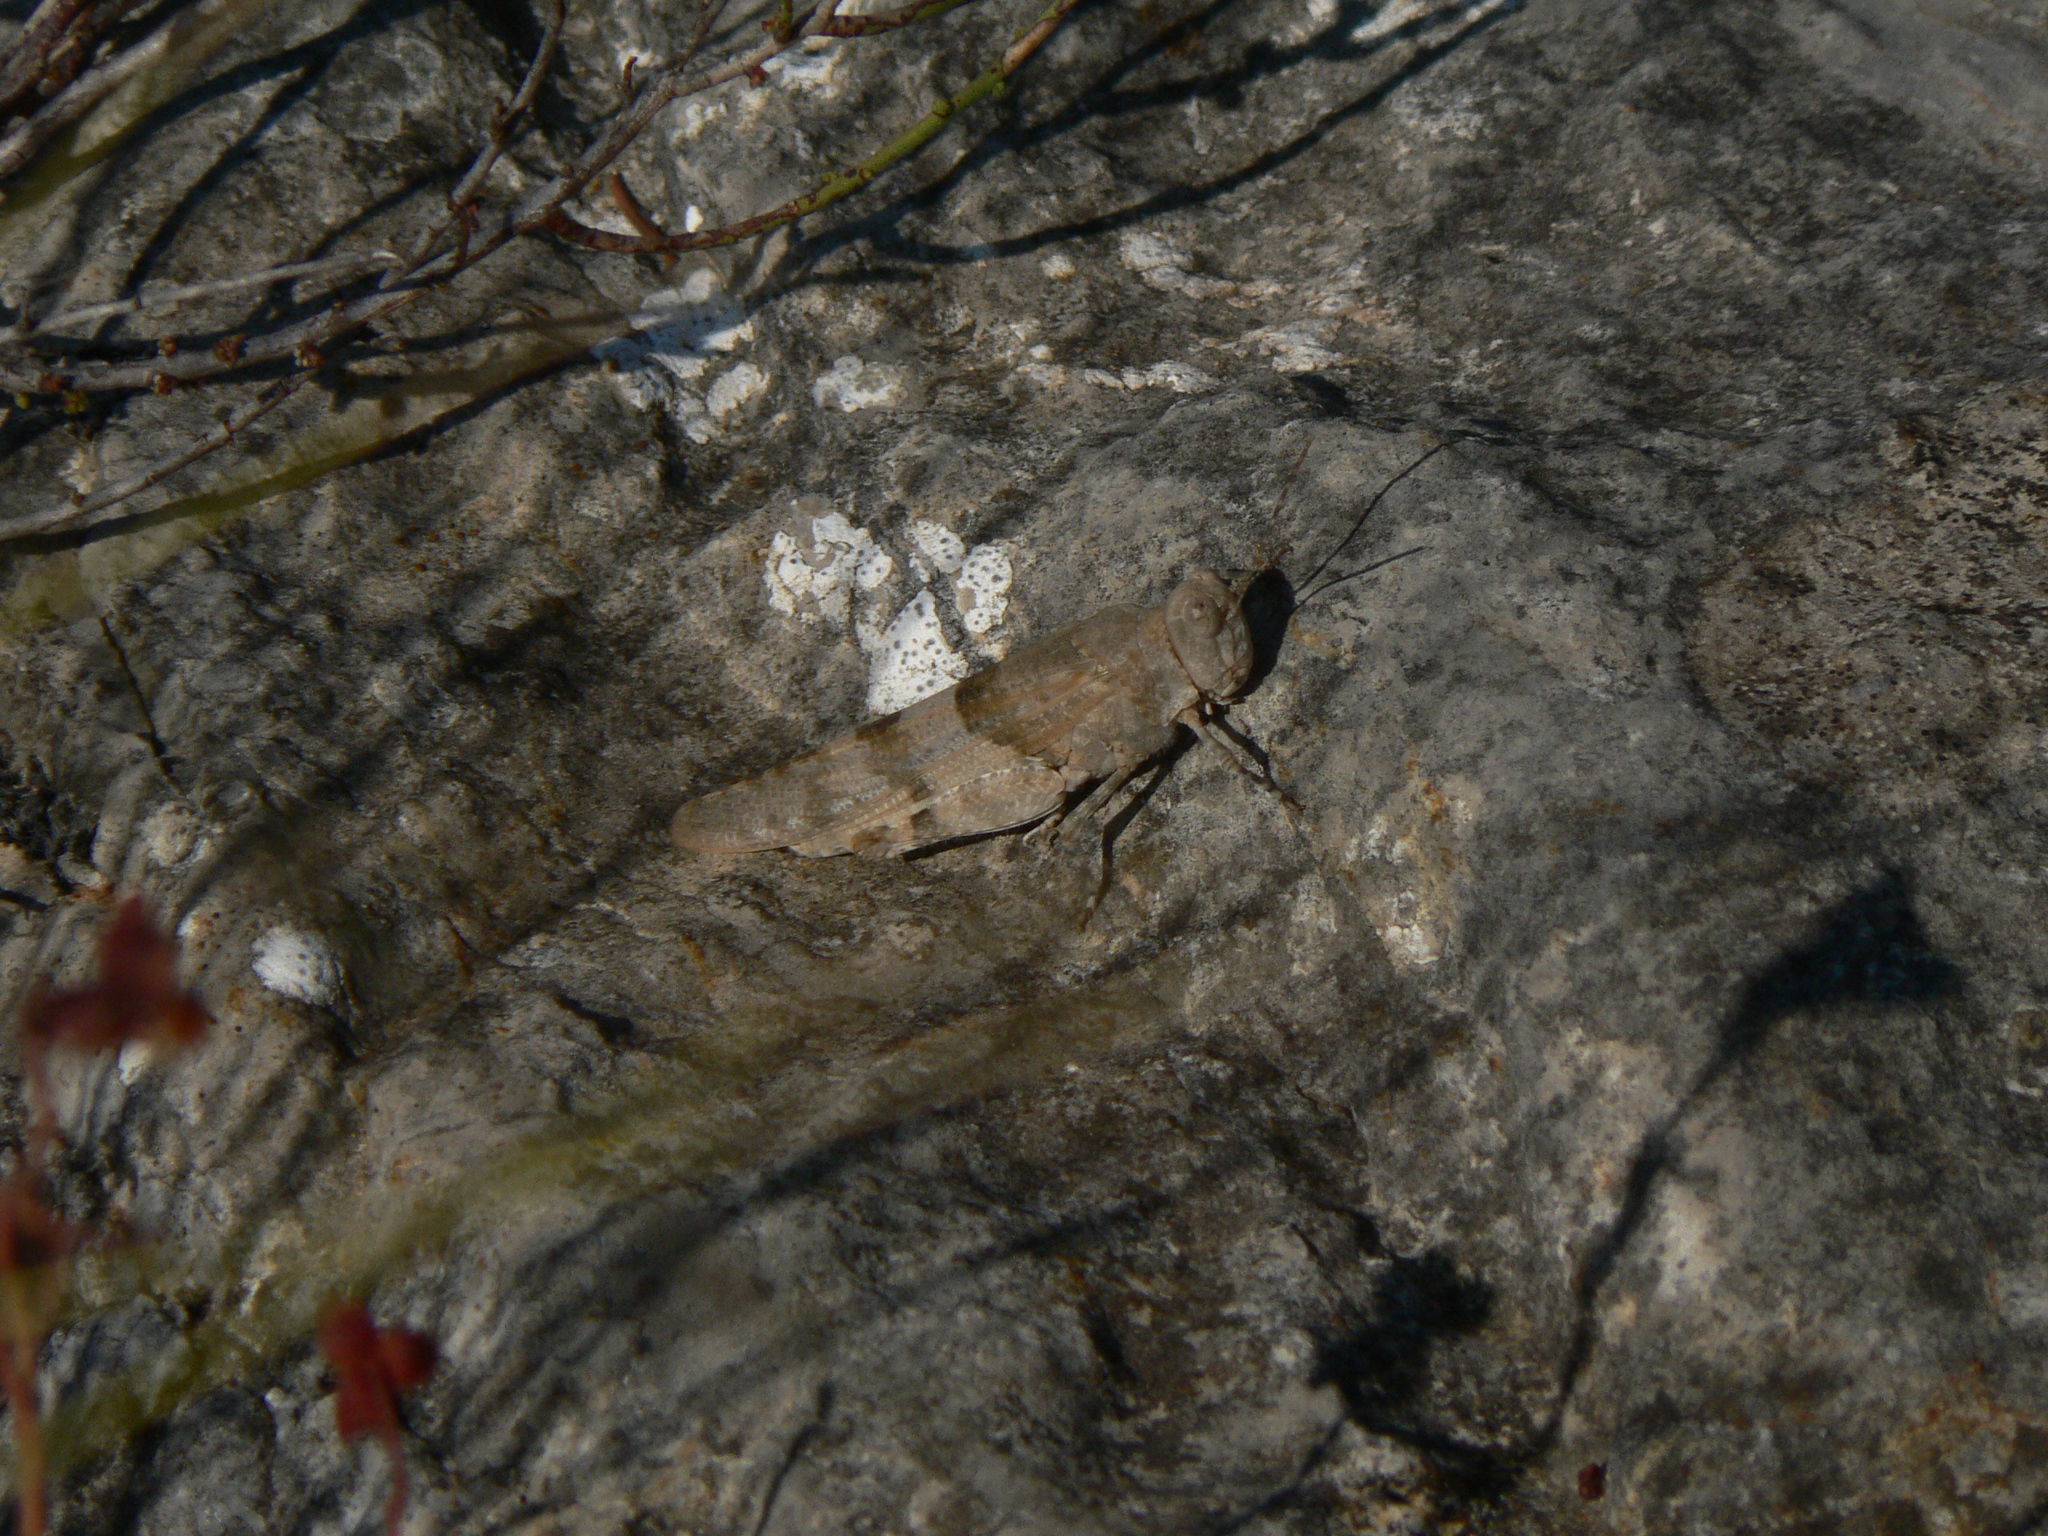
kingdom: Animalia
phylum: Arthropoda
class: Insecta
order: Orthoptera
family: Acrididae
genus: Sphingonotus
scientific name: Sphingonotus caerulans
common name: Blue-winged locust
